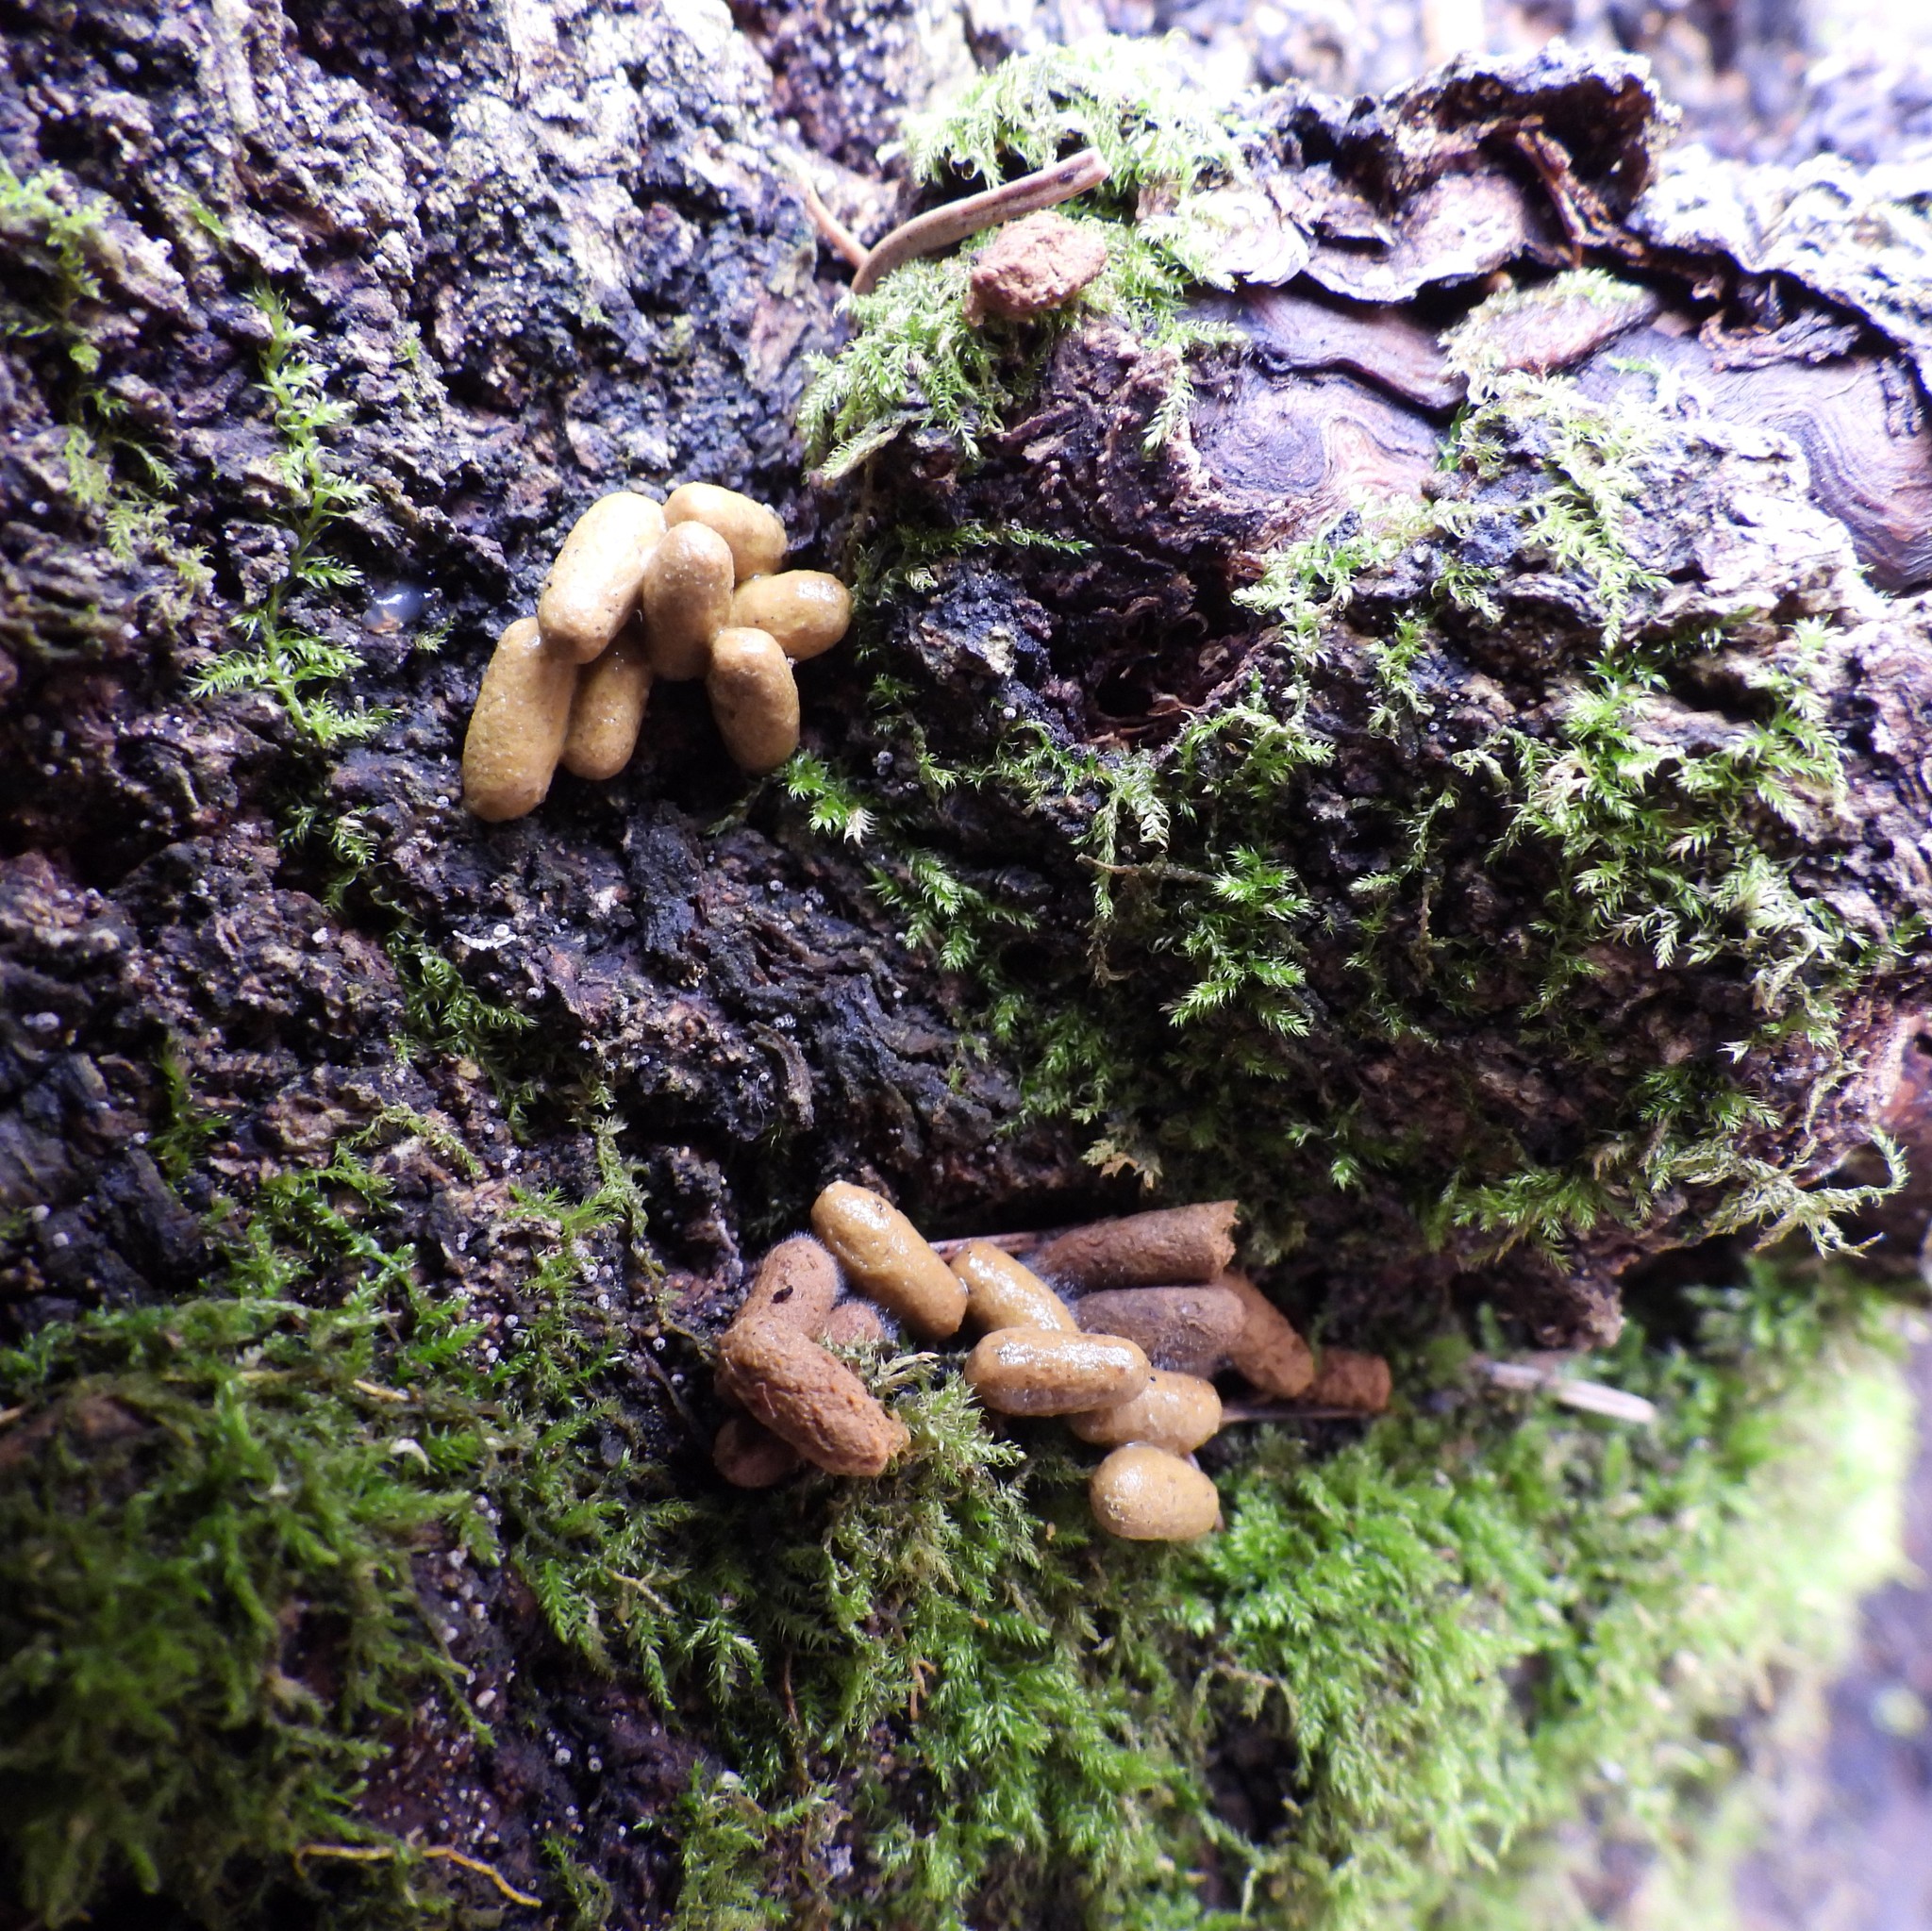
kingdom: Animalia
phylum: Chordata
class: Mammalia
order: Rodentia
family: Sciuridae
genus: Pteromys
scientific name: Pteromys volans
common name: Siberian flying squirrel
